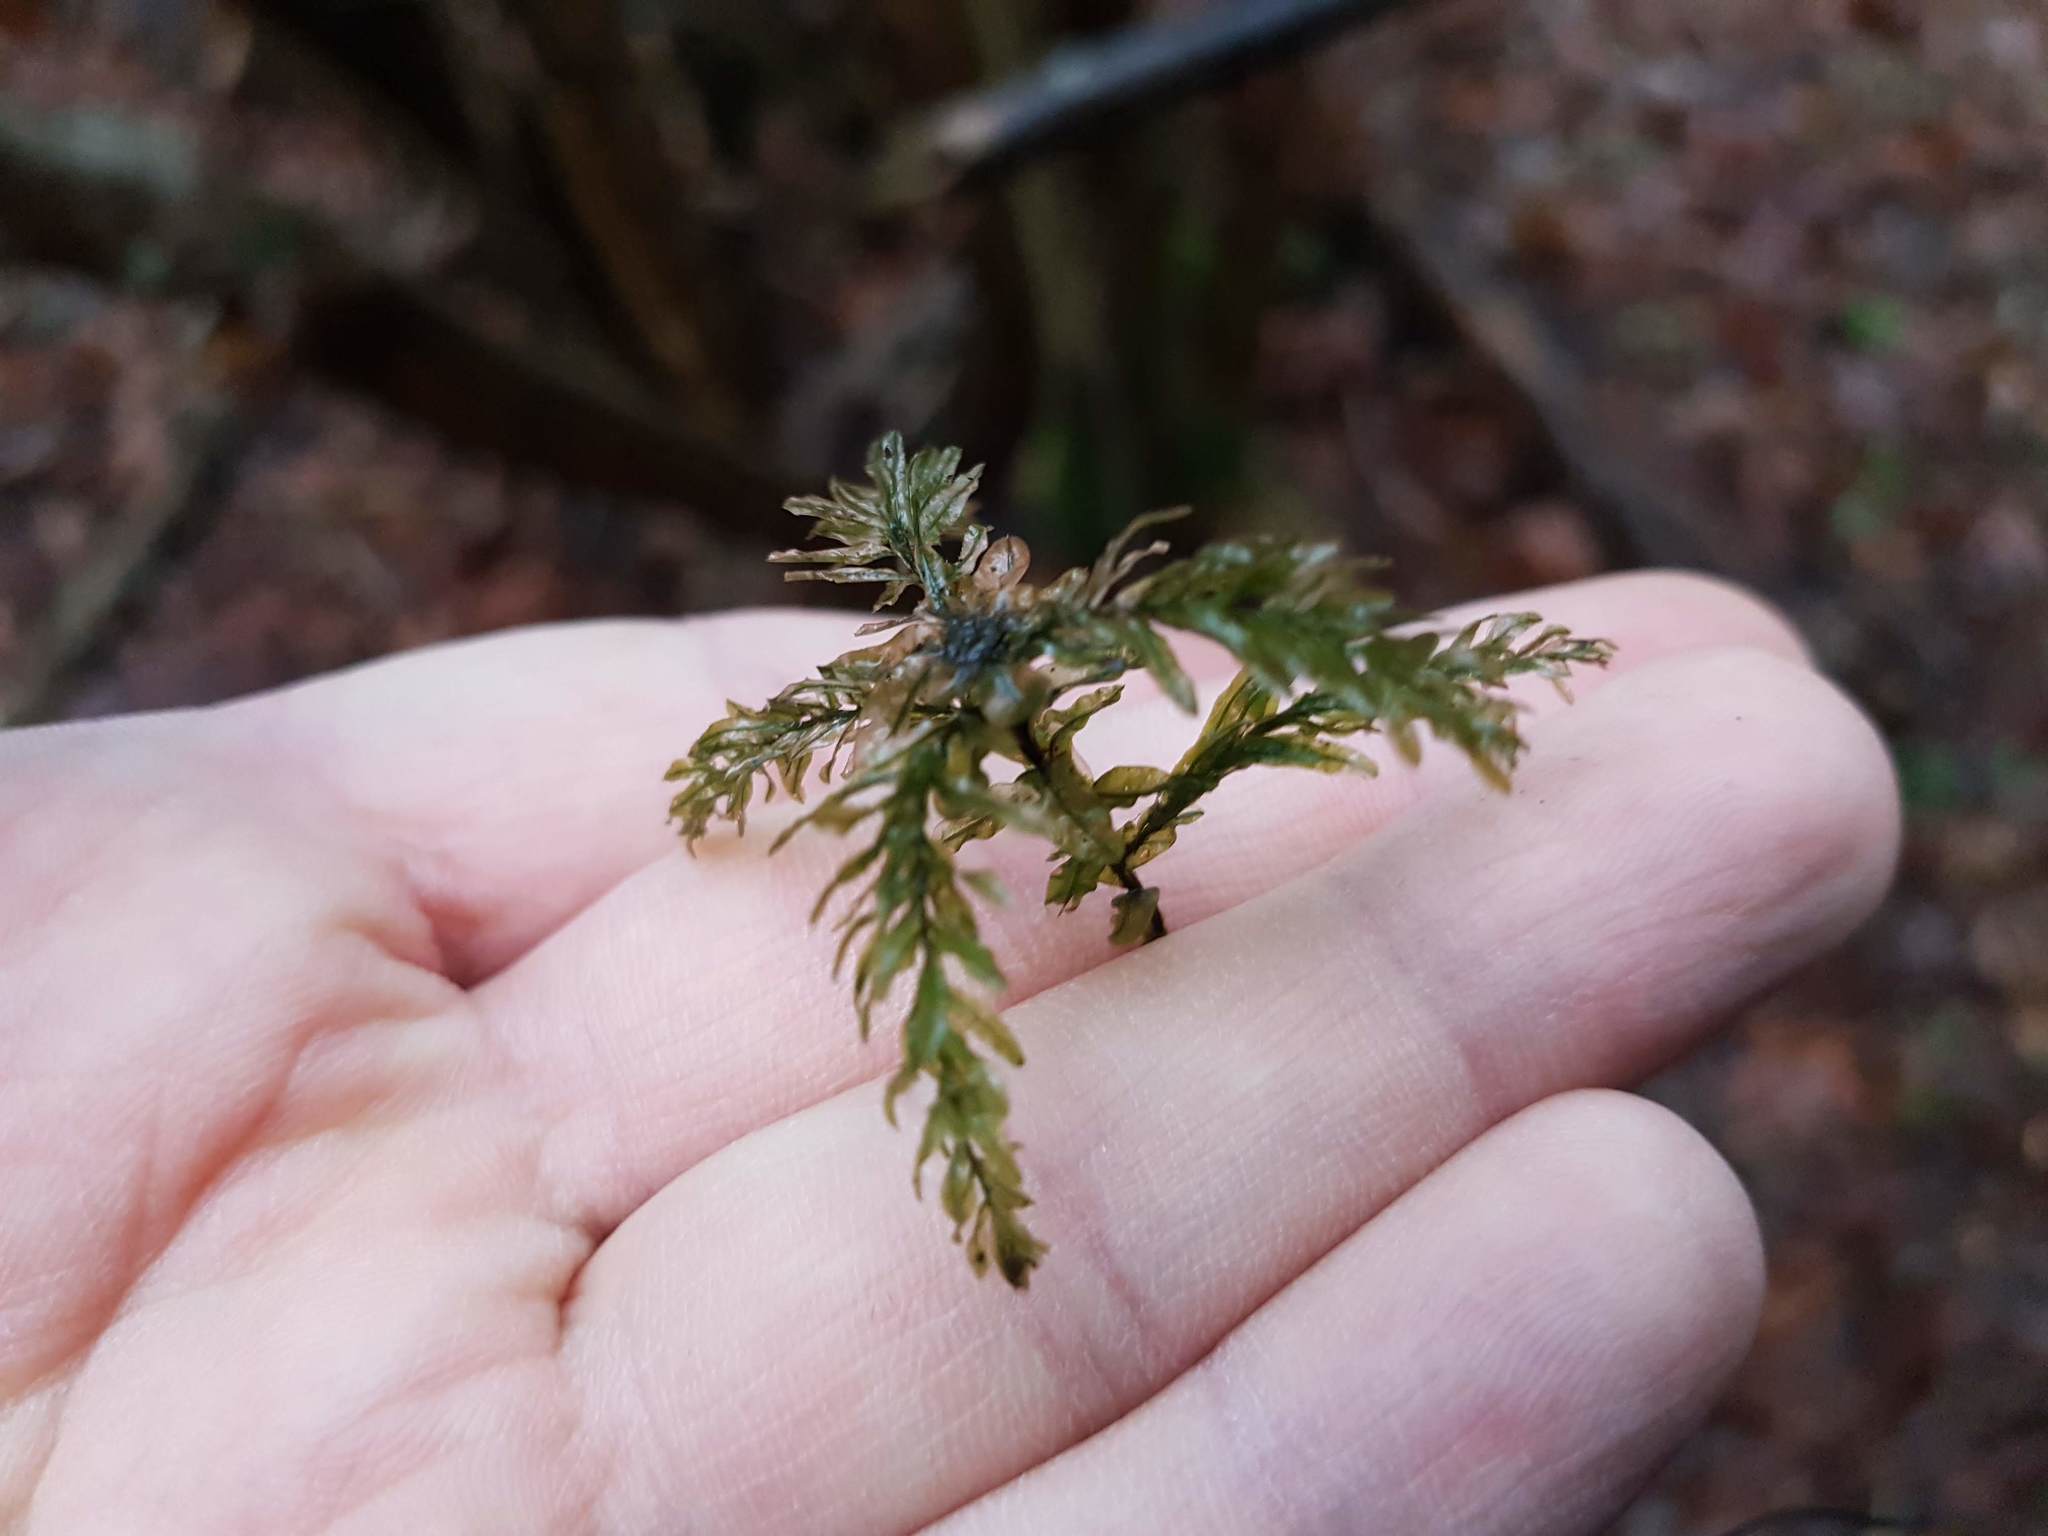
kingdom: Plantae
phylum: Bryophyta
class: Bryopsida
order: Bryales
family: Mniaceae
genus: Plagiomnium
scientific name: Plagiomnium undulatum
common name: Hart's-tongue thyme-moss
